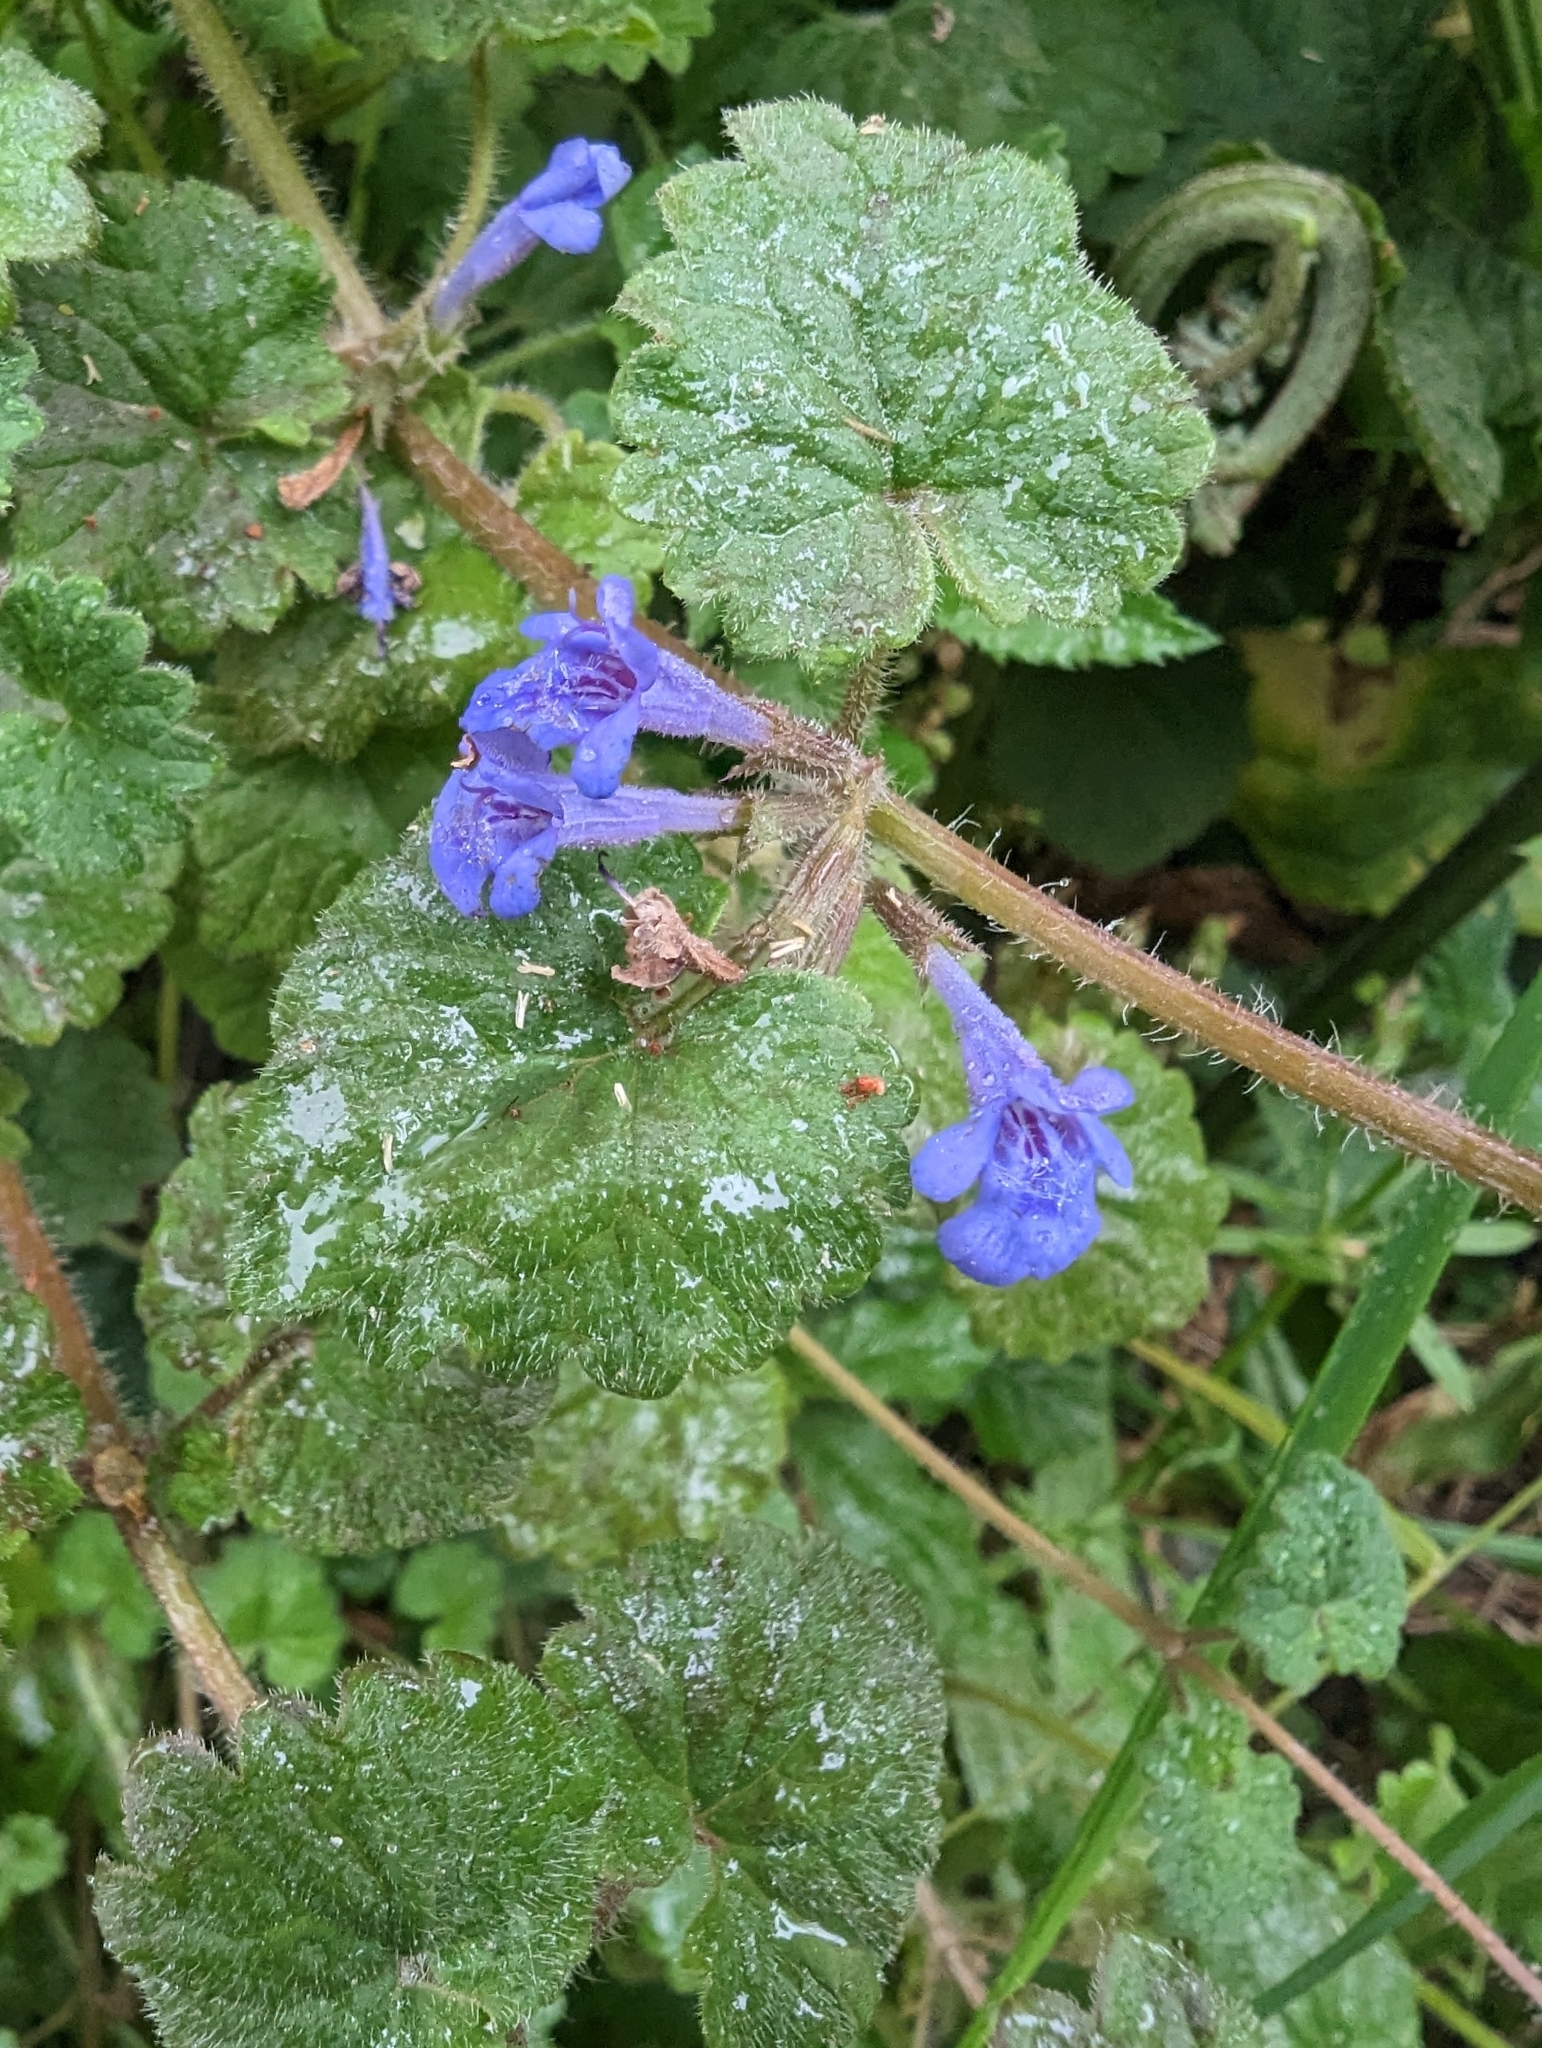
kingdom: Plantae
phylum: Tracheophyta
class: Magnoliopsida
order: Lamiales
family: Lamiaceae
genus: Glechoma
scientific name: Glechoma hederacea
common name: Ground ivy
